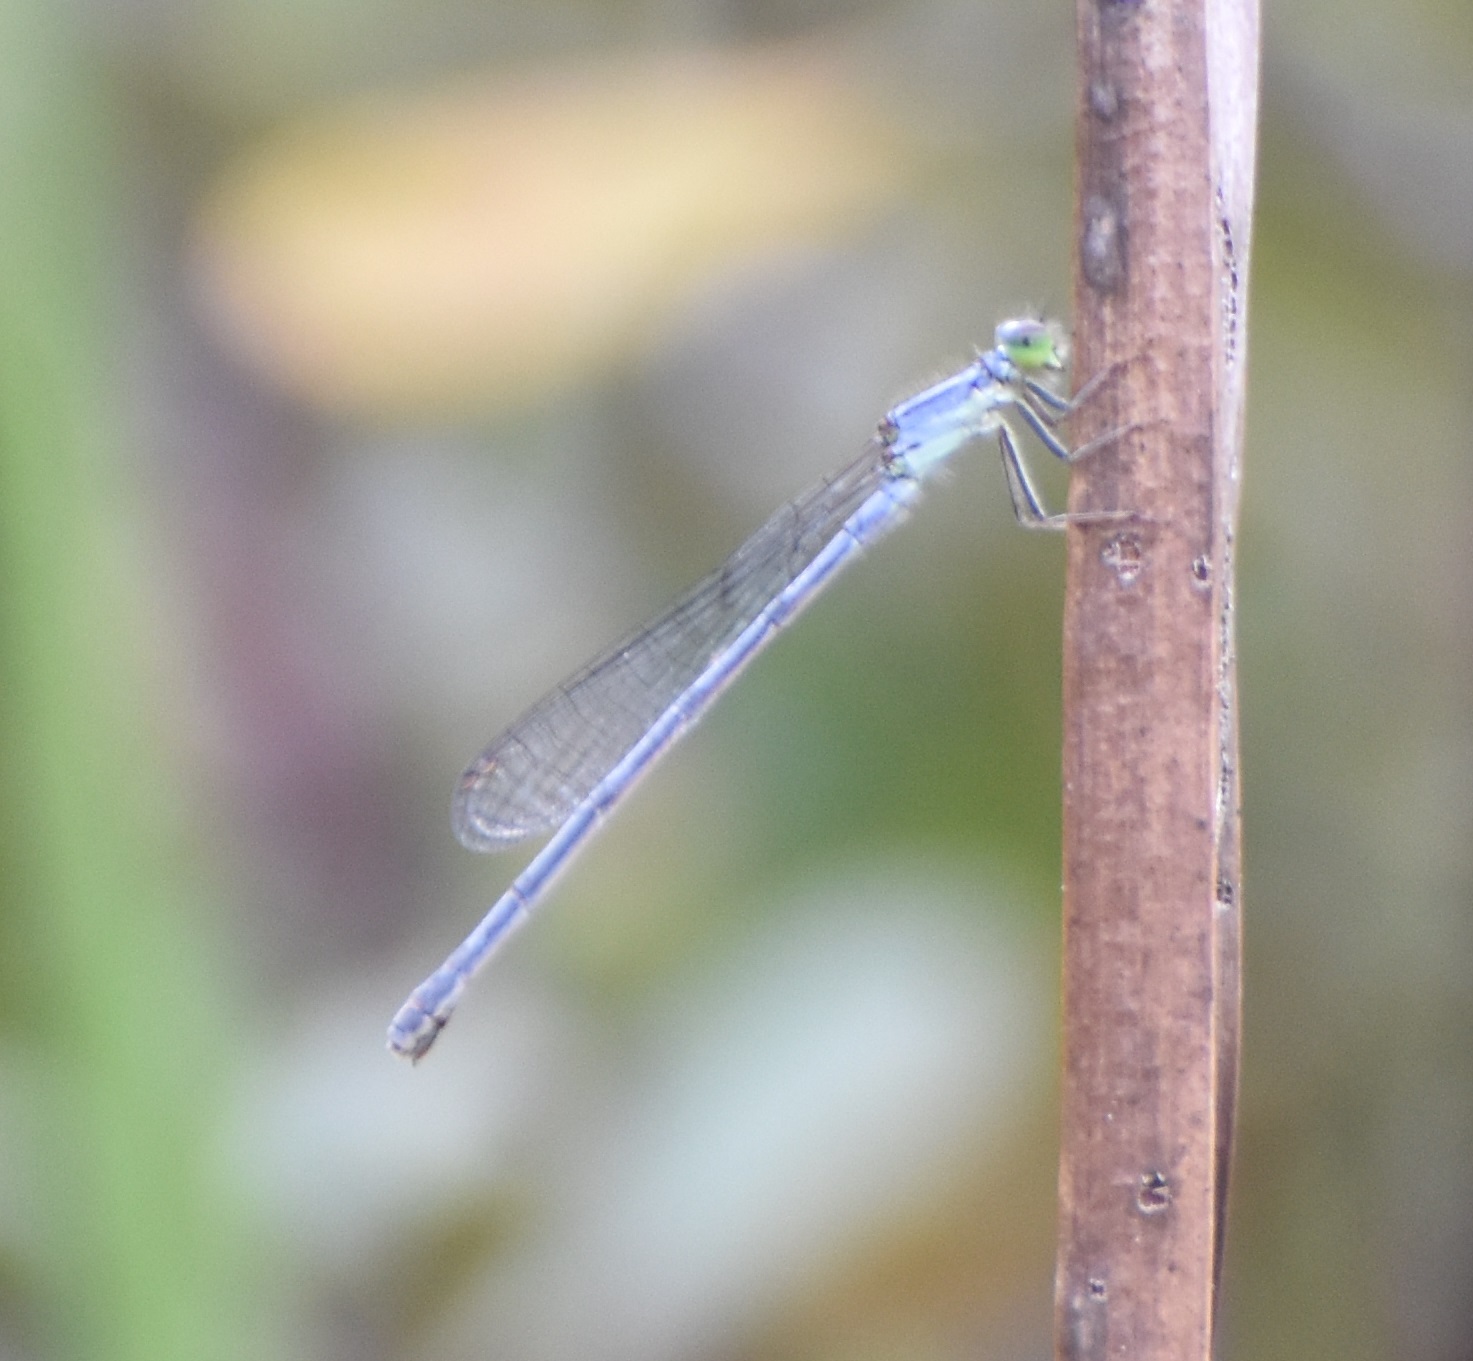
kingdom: Animalia
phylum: Arthropoda
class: Insecta
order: Odonata
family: Coenagrionidae
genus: Ischnura
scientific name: Ischnura verticalis
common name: Eastern forktail
